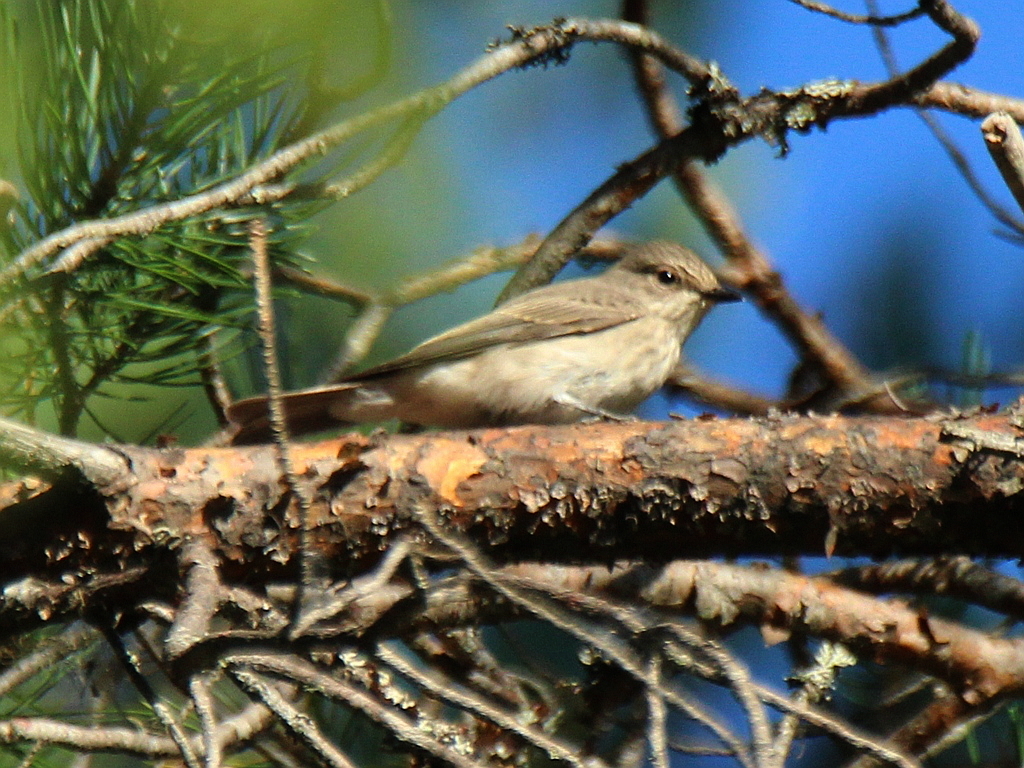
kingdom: Animalia
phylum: Chordata
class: Aves
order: Passeriformes
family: Muscicapidae
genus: Muscicapa
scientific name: Muscicapa striata
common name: Spotted flycatcher
